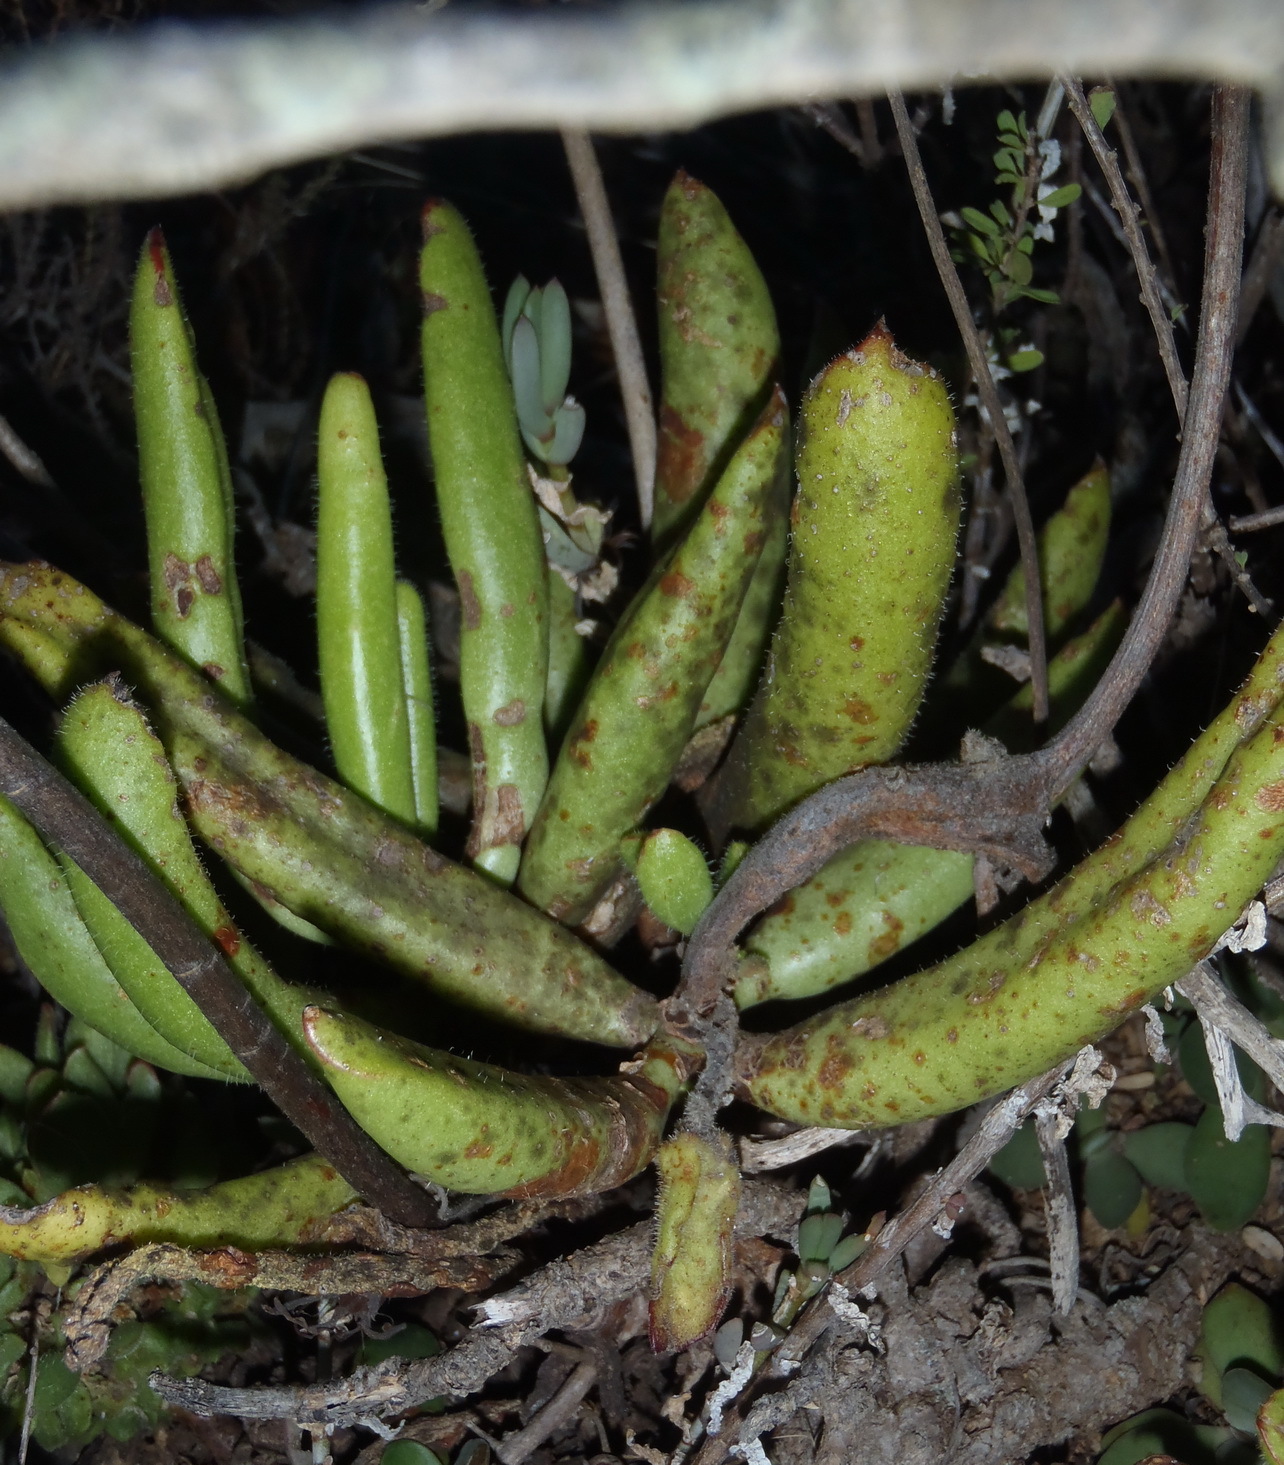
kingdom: Plantae
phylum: Tracheophyta
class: Magnoliopsida
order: Saxifragales
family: Crassulaceae
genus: Cotyledon
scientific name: Cotyledon campanulata
